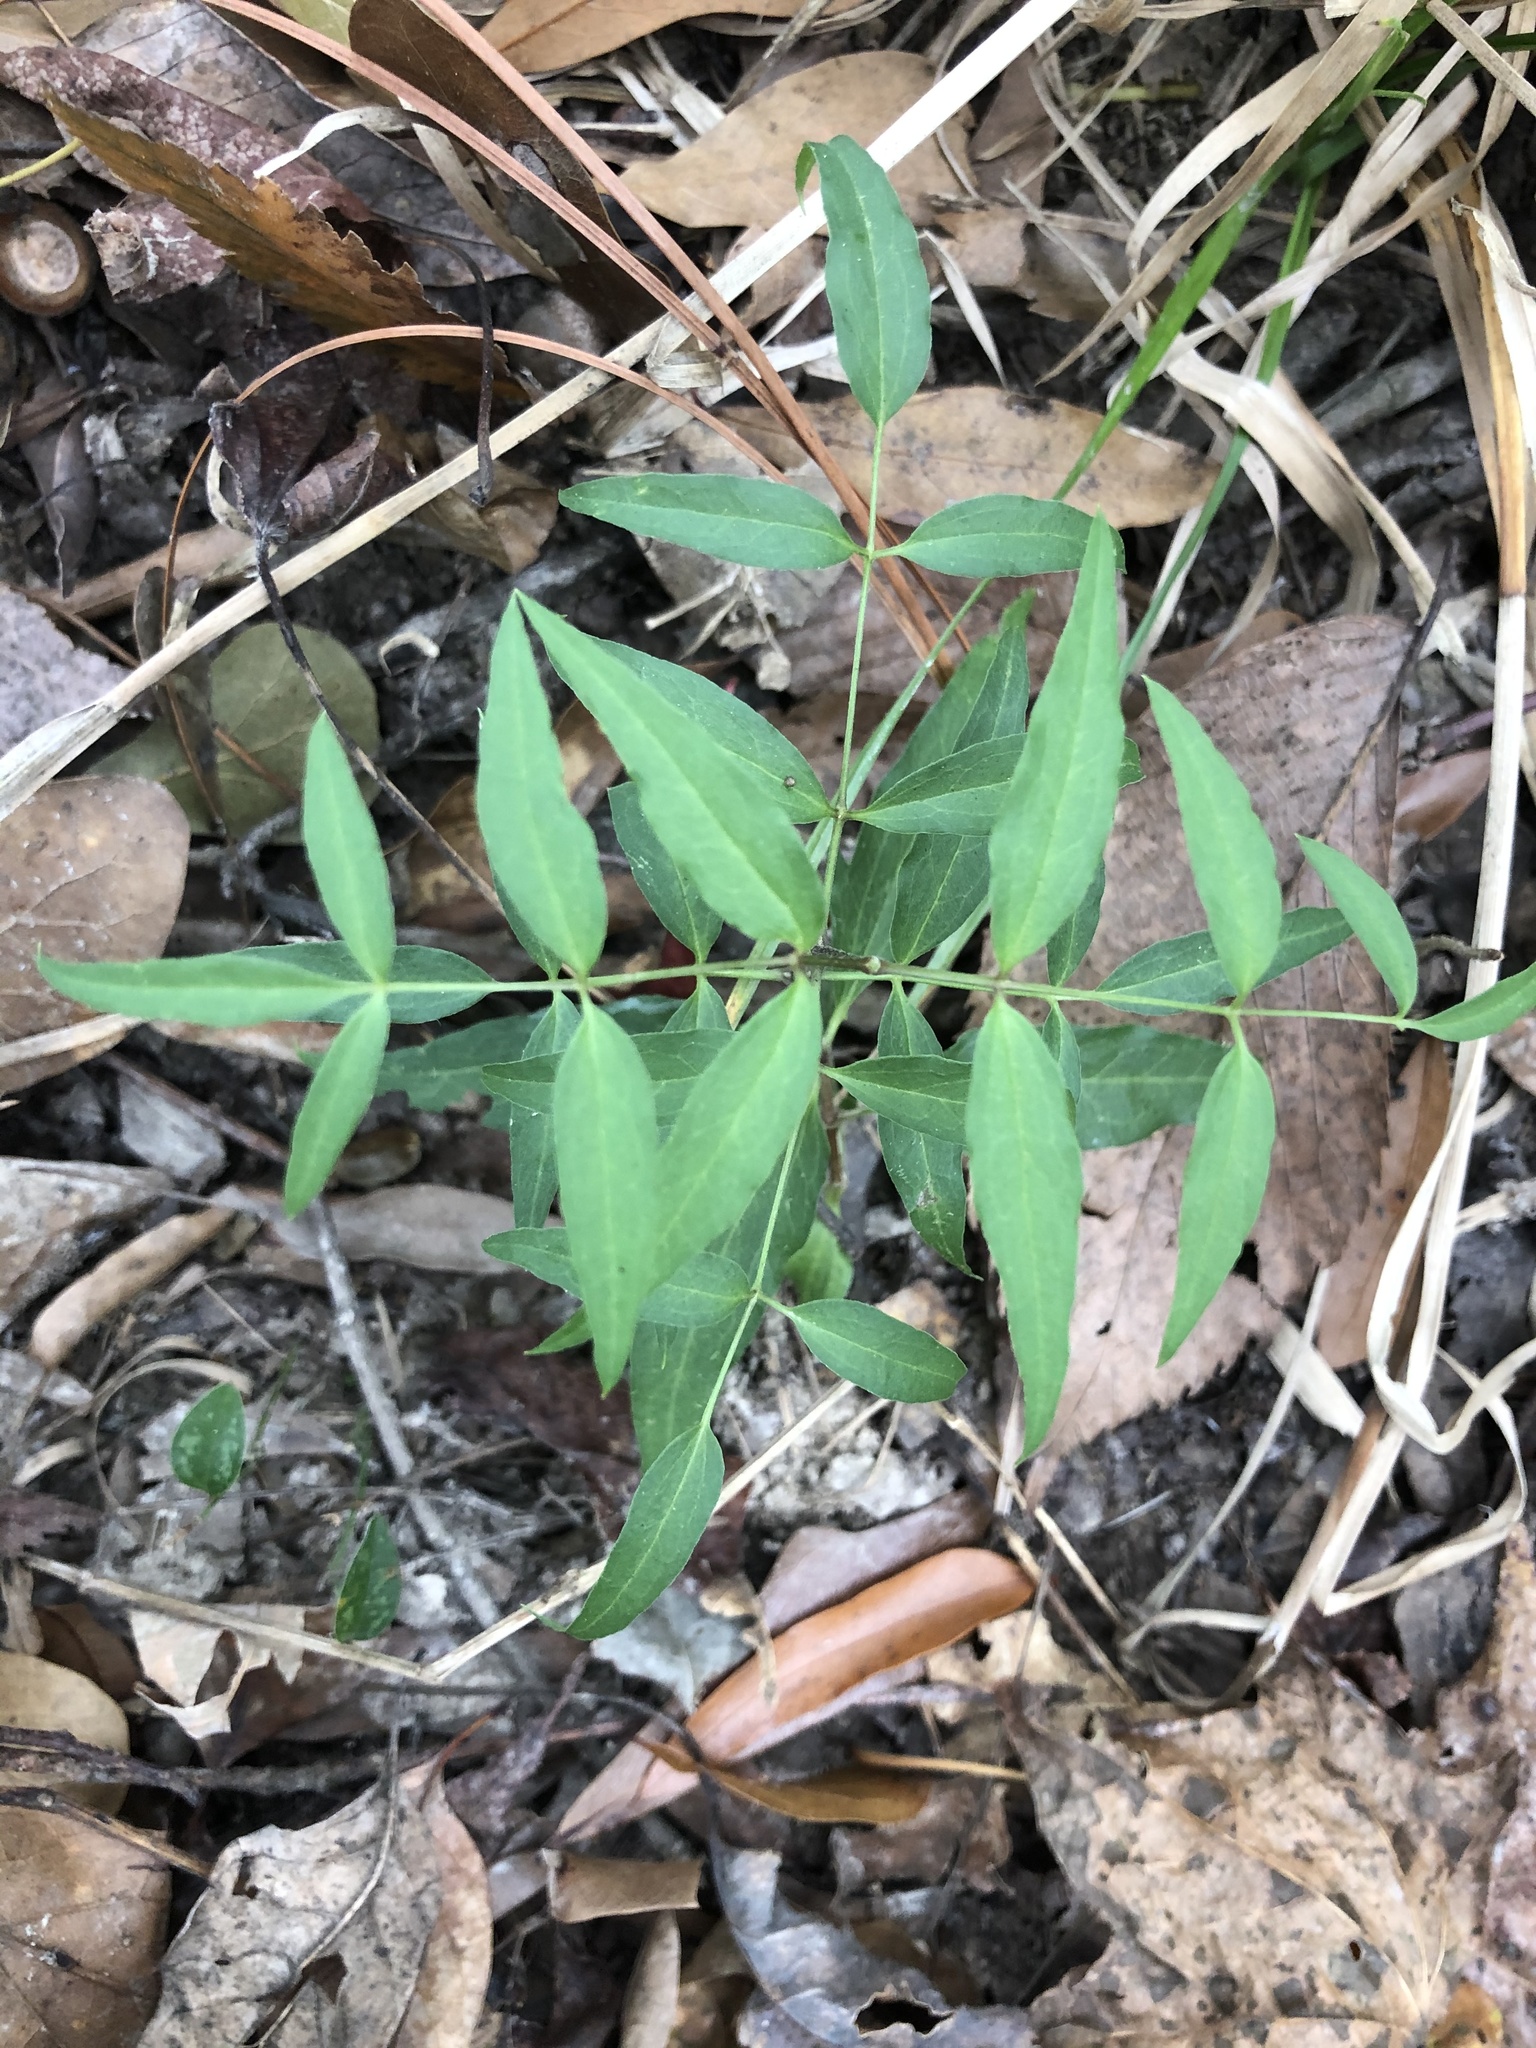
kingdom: Plantae
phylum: Tracheophyta
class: Magnoliopsida
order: Ranunculales
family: Ranunculaceae
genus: Clematis
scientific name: Clematis crispa
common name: Curly clematis
